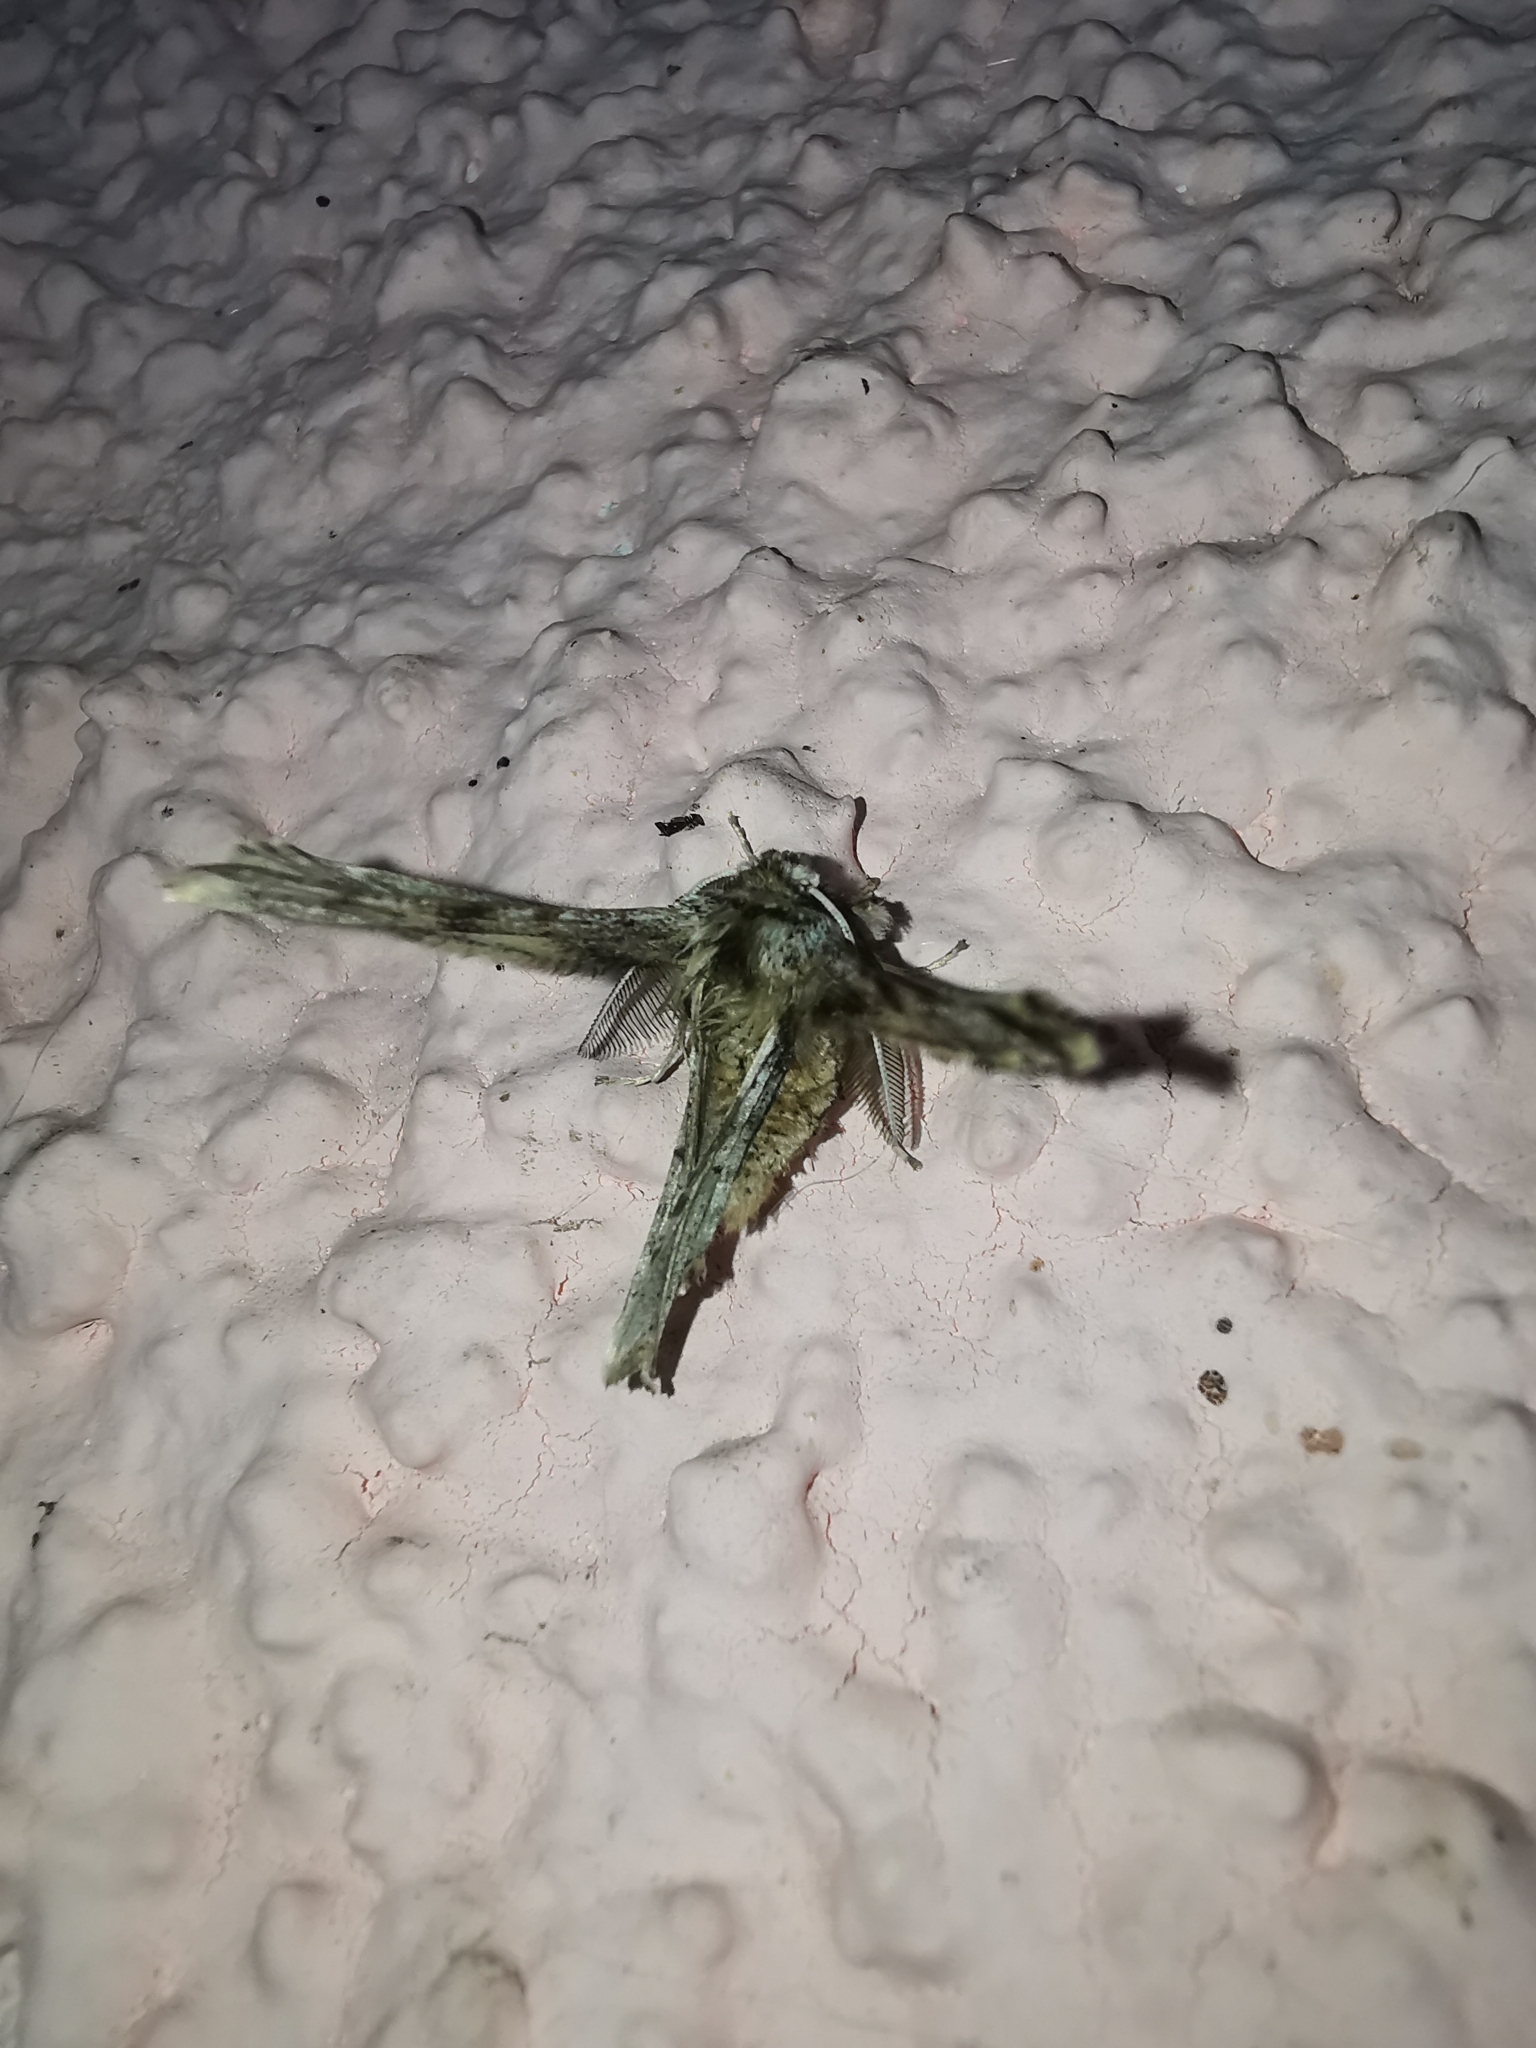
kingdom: Animalia
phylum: Arthropoda
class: Insecta
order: Lepidoptera
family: Geometridae
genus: Apochima
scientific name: Apochima flabellaria
